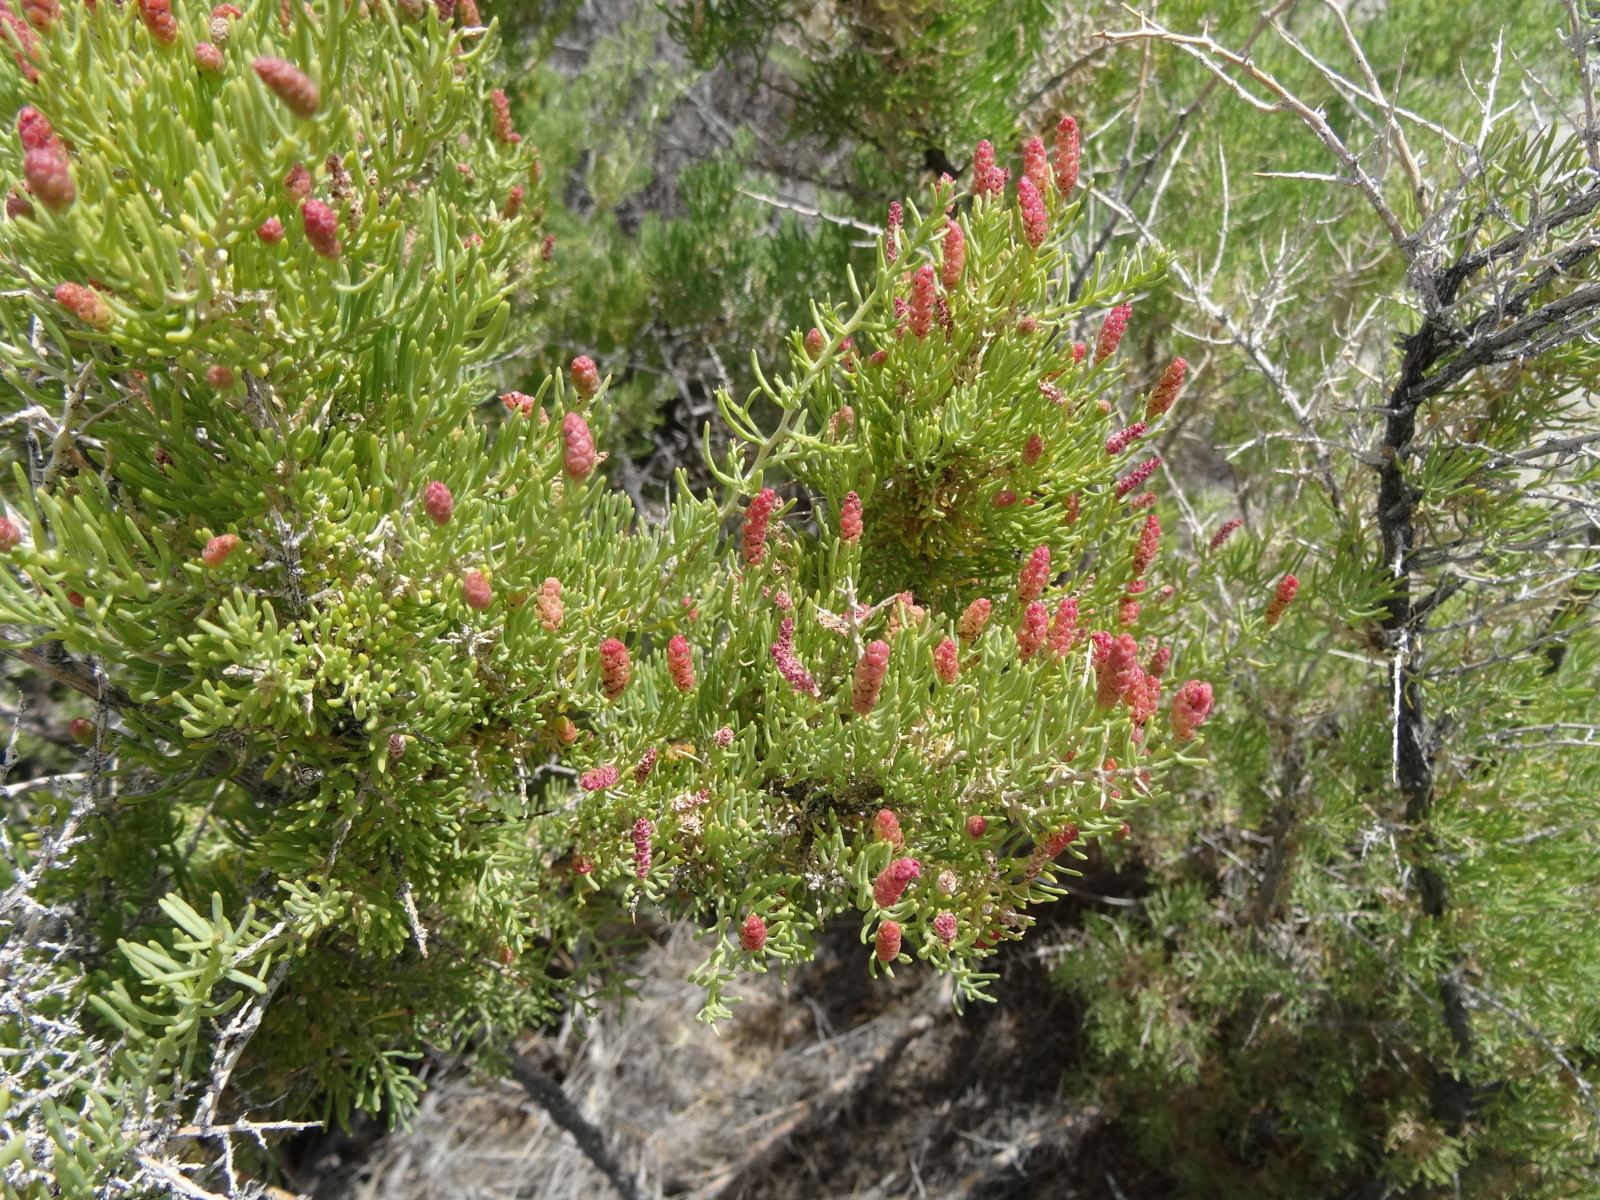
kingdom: Plantae
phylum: Tracheophyta
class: Magnoliopsida
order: Caryophyllales
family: Sarcobataceae
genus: Sarcobatus
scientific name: Sarcobatus vermiculatus
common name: Greasewood
